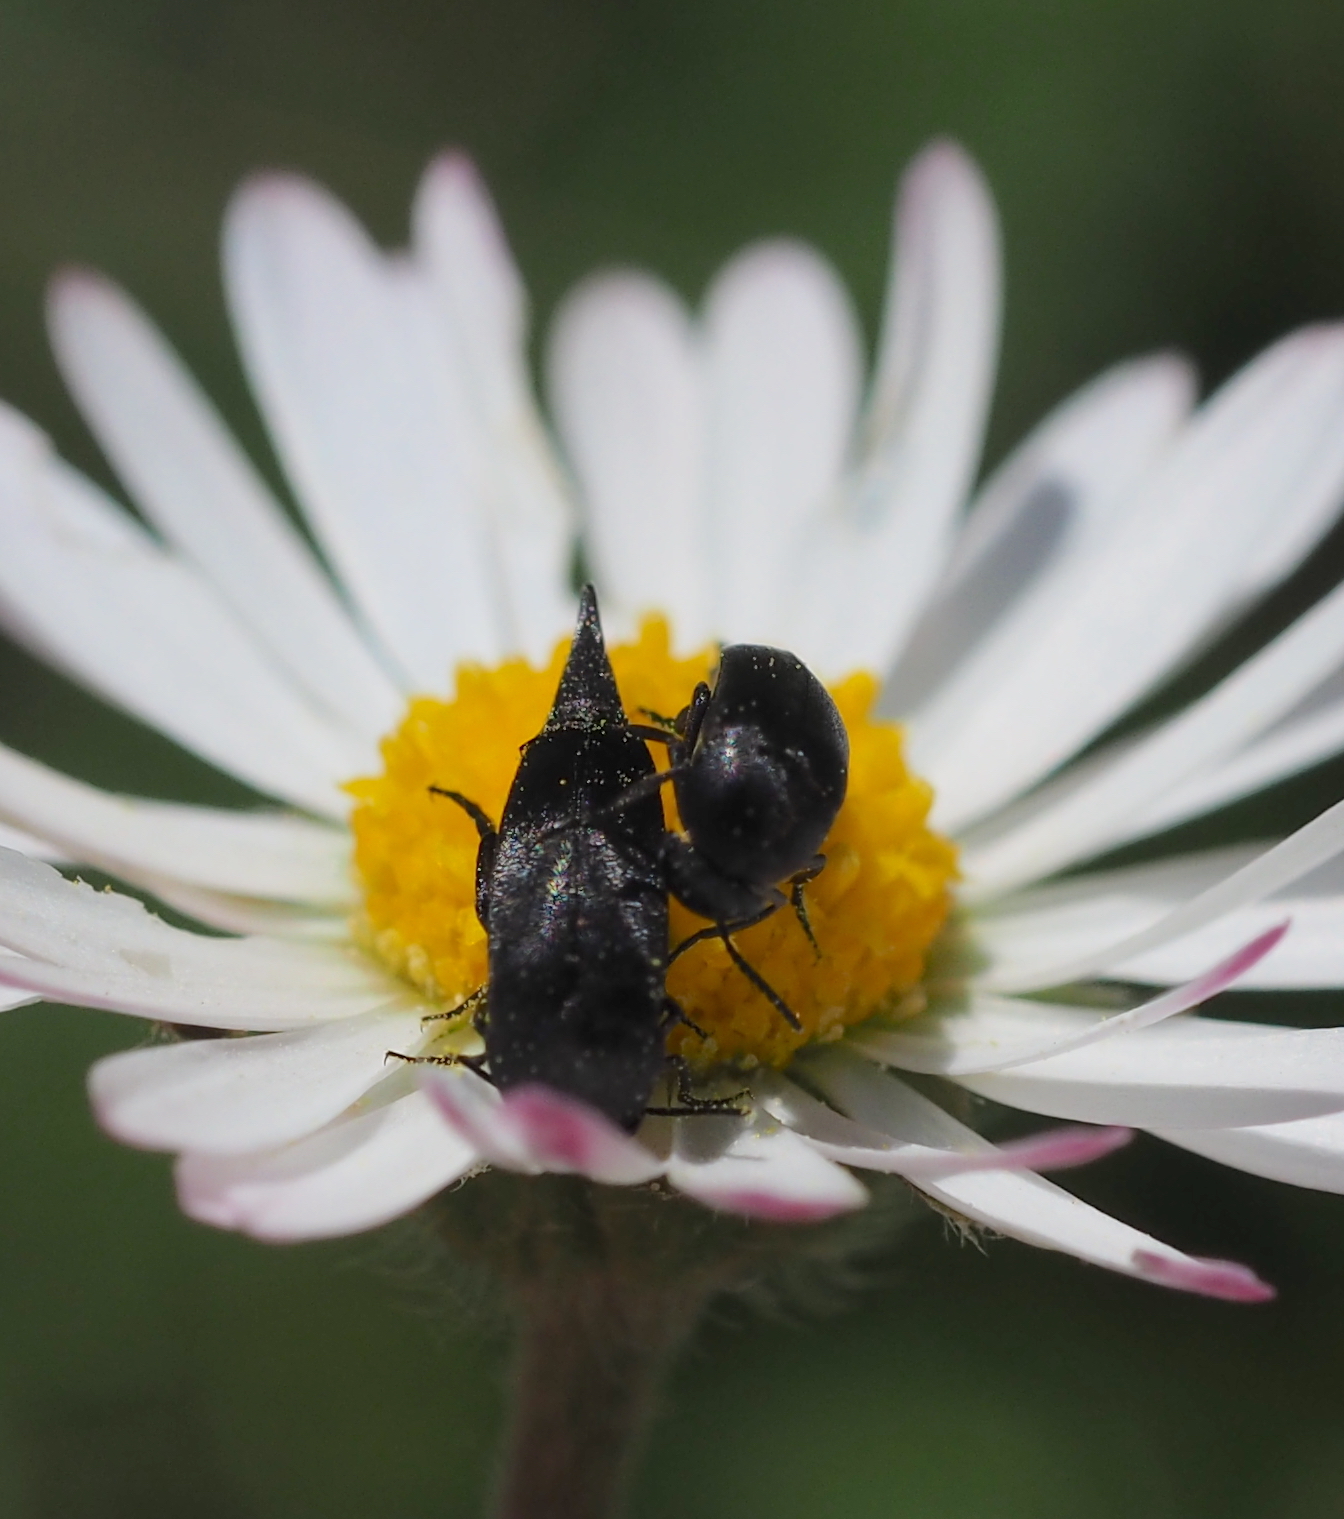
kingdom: Animalia
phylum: Arthropoda
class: Insecta
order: Coleoptera
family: Mordellidae
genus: Mordellistena
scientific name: Mordellistena brevicauda
